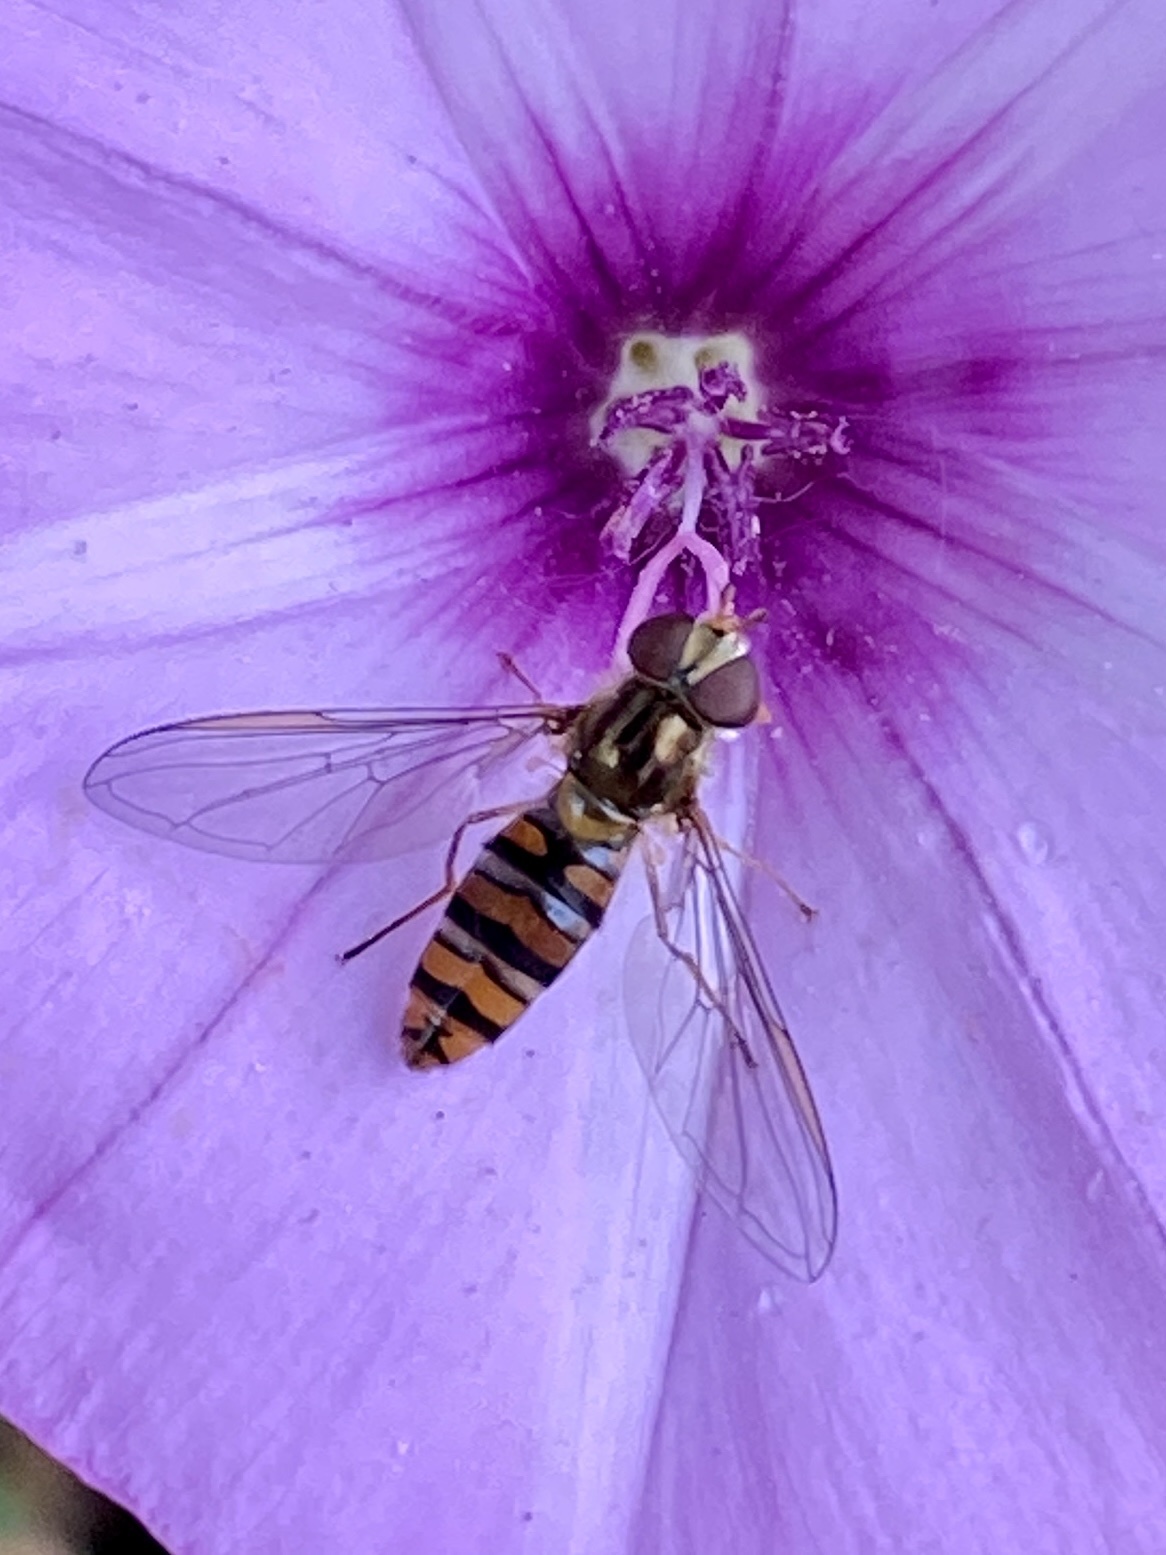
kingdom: Animalia
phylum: Arthropoda
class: Insecta
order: Diptera
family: Syrphidae
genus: Episyrphus
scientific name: Episyrphus balteatus
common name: Marmalade hoverfly
